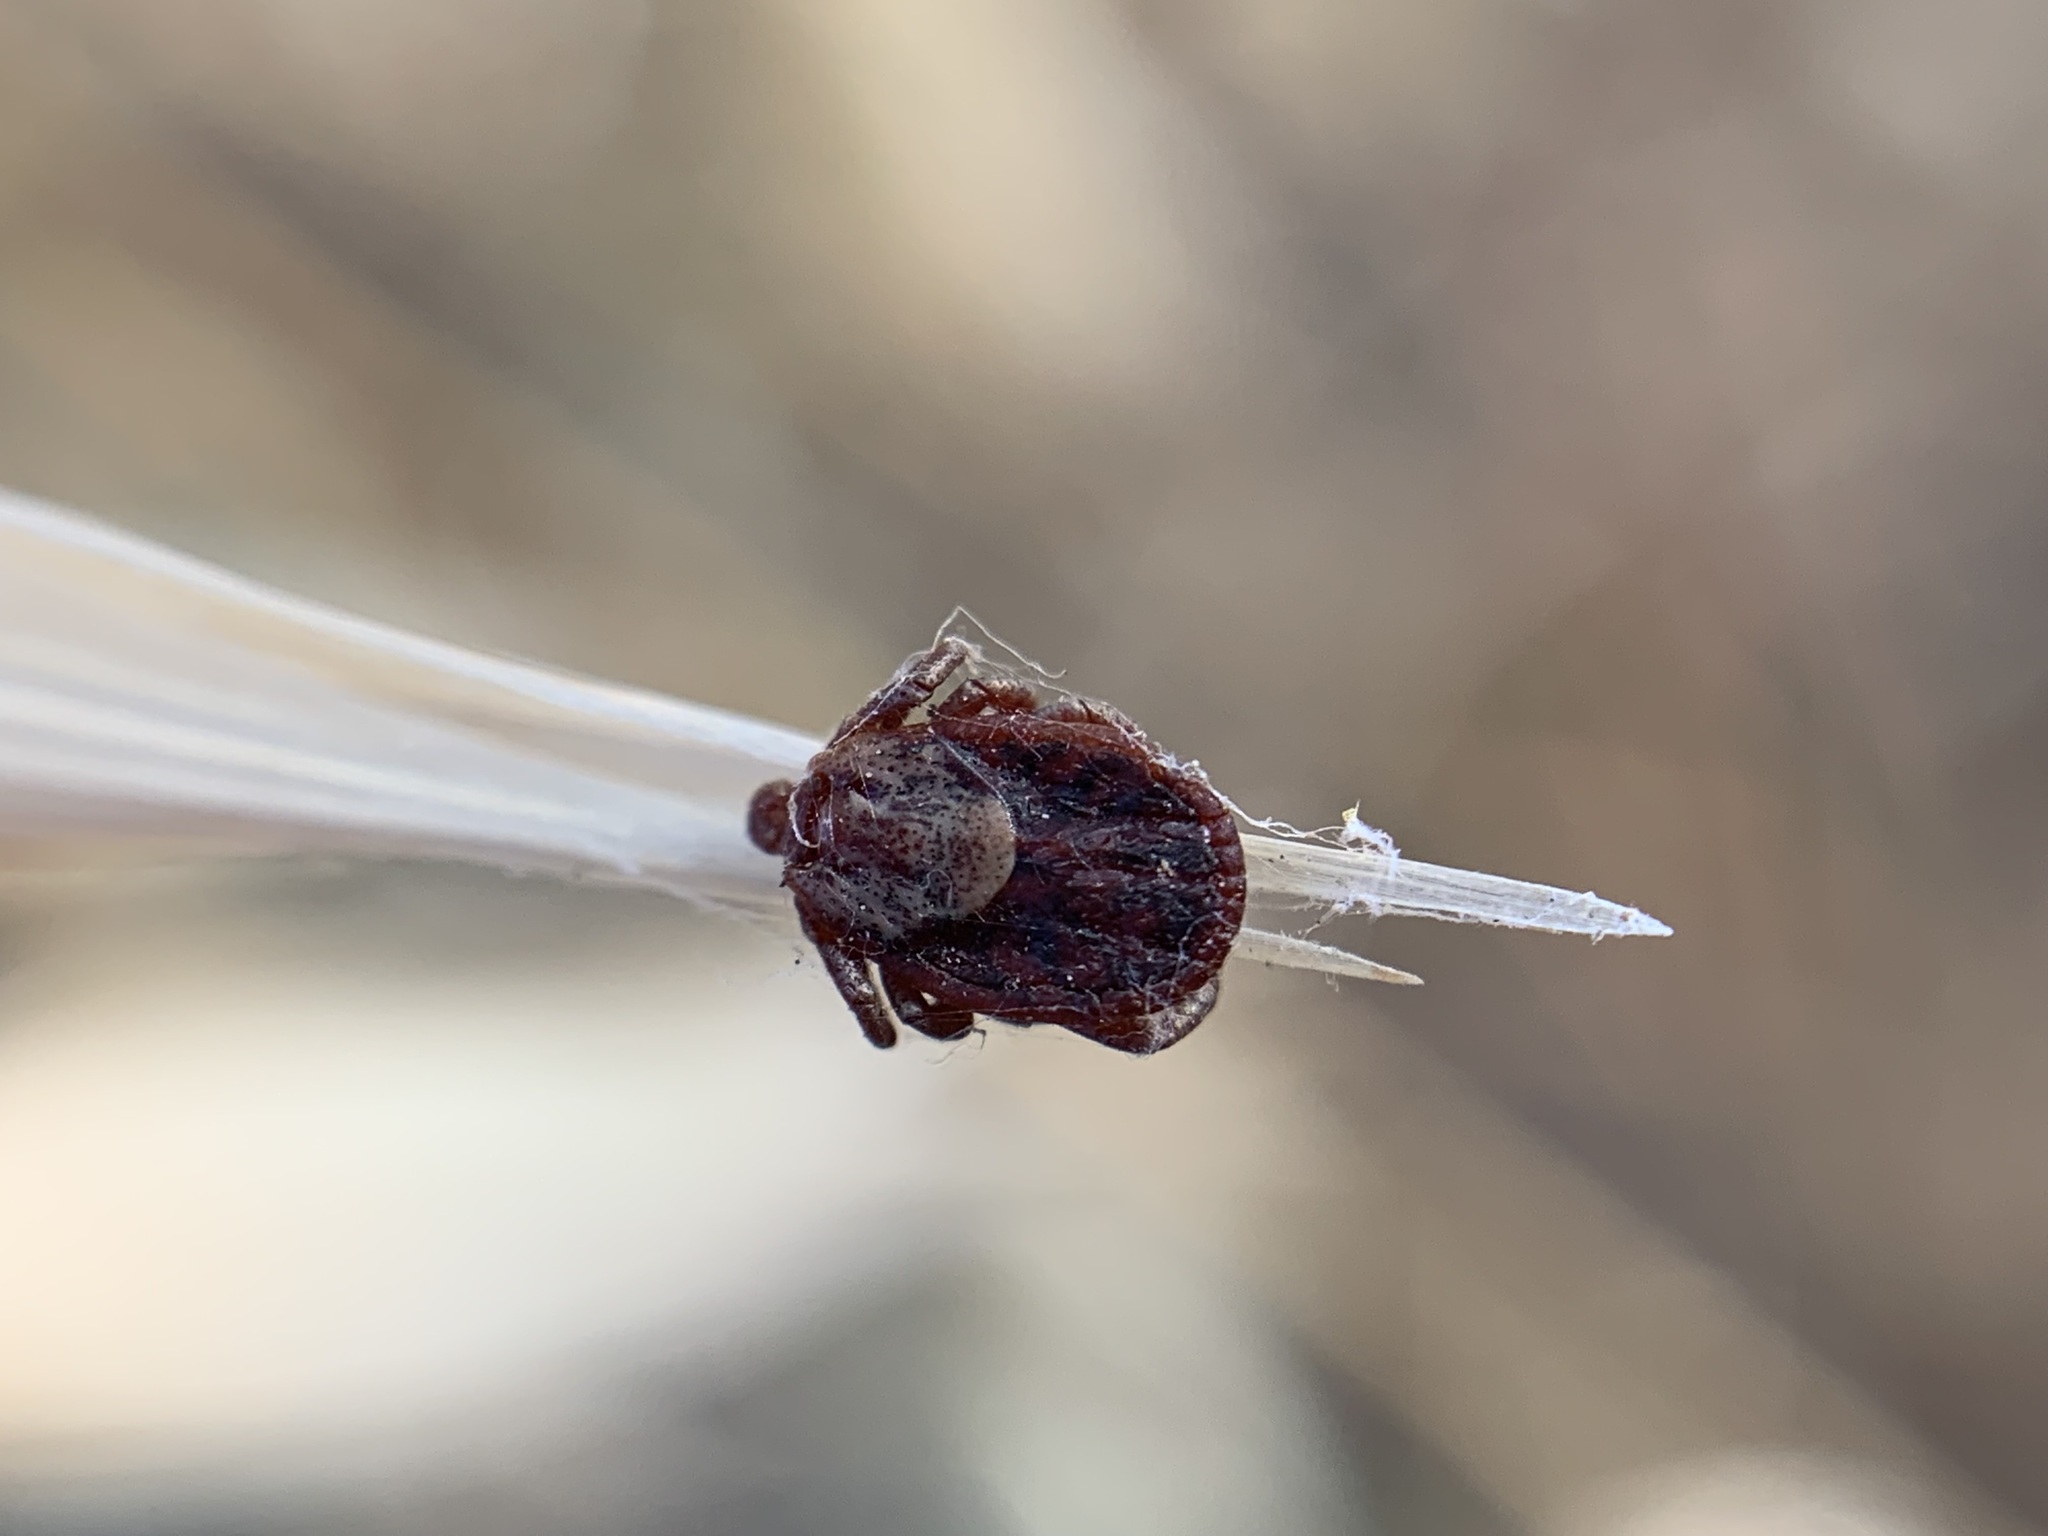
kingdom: Animalia
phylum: Arthropoda
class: Arachnida
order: Ixodida
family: Ixodidae
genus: Dermacentor
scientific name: Dermacentor occidentalis
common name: Net tick
